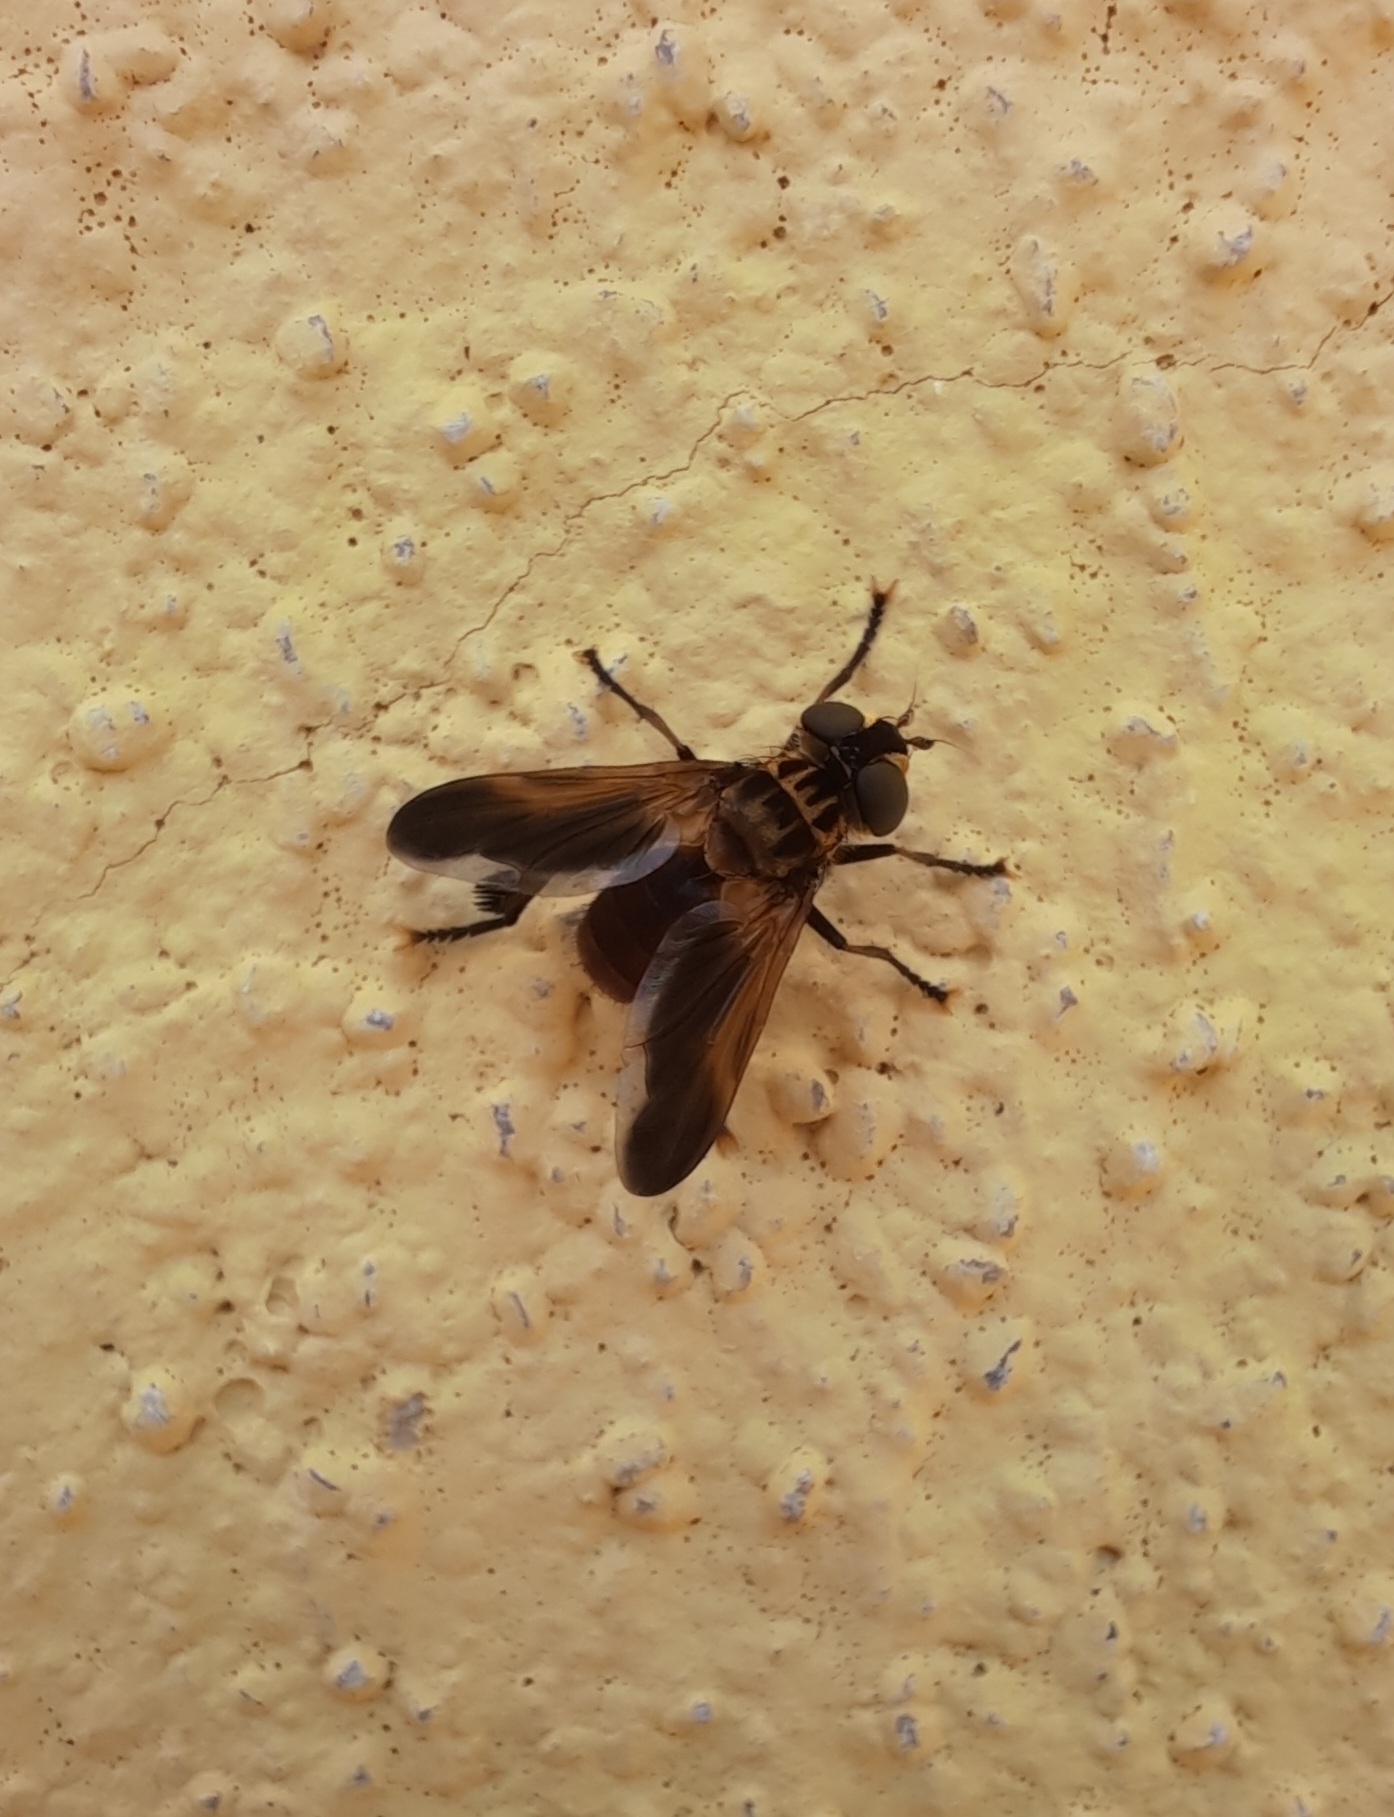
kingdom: Animalia
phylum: Arthropoda
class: Insecta
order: Diptera
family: Tachinidae
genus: Trichopoda
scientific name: Trichopoda pictipennis
